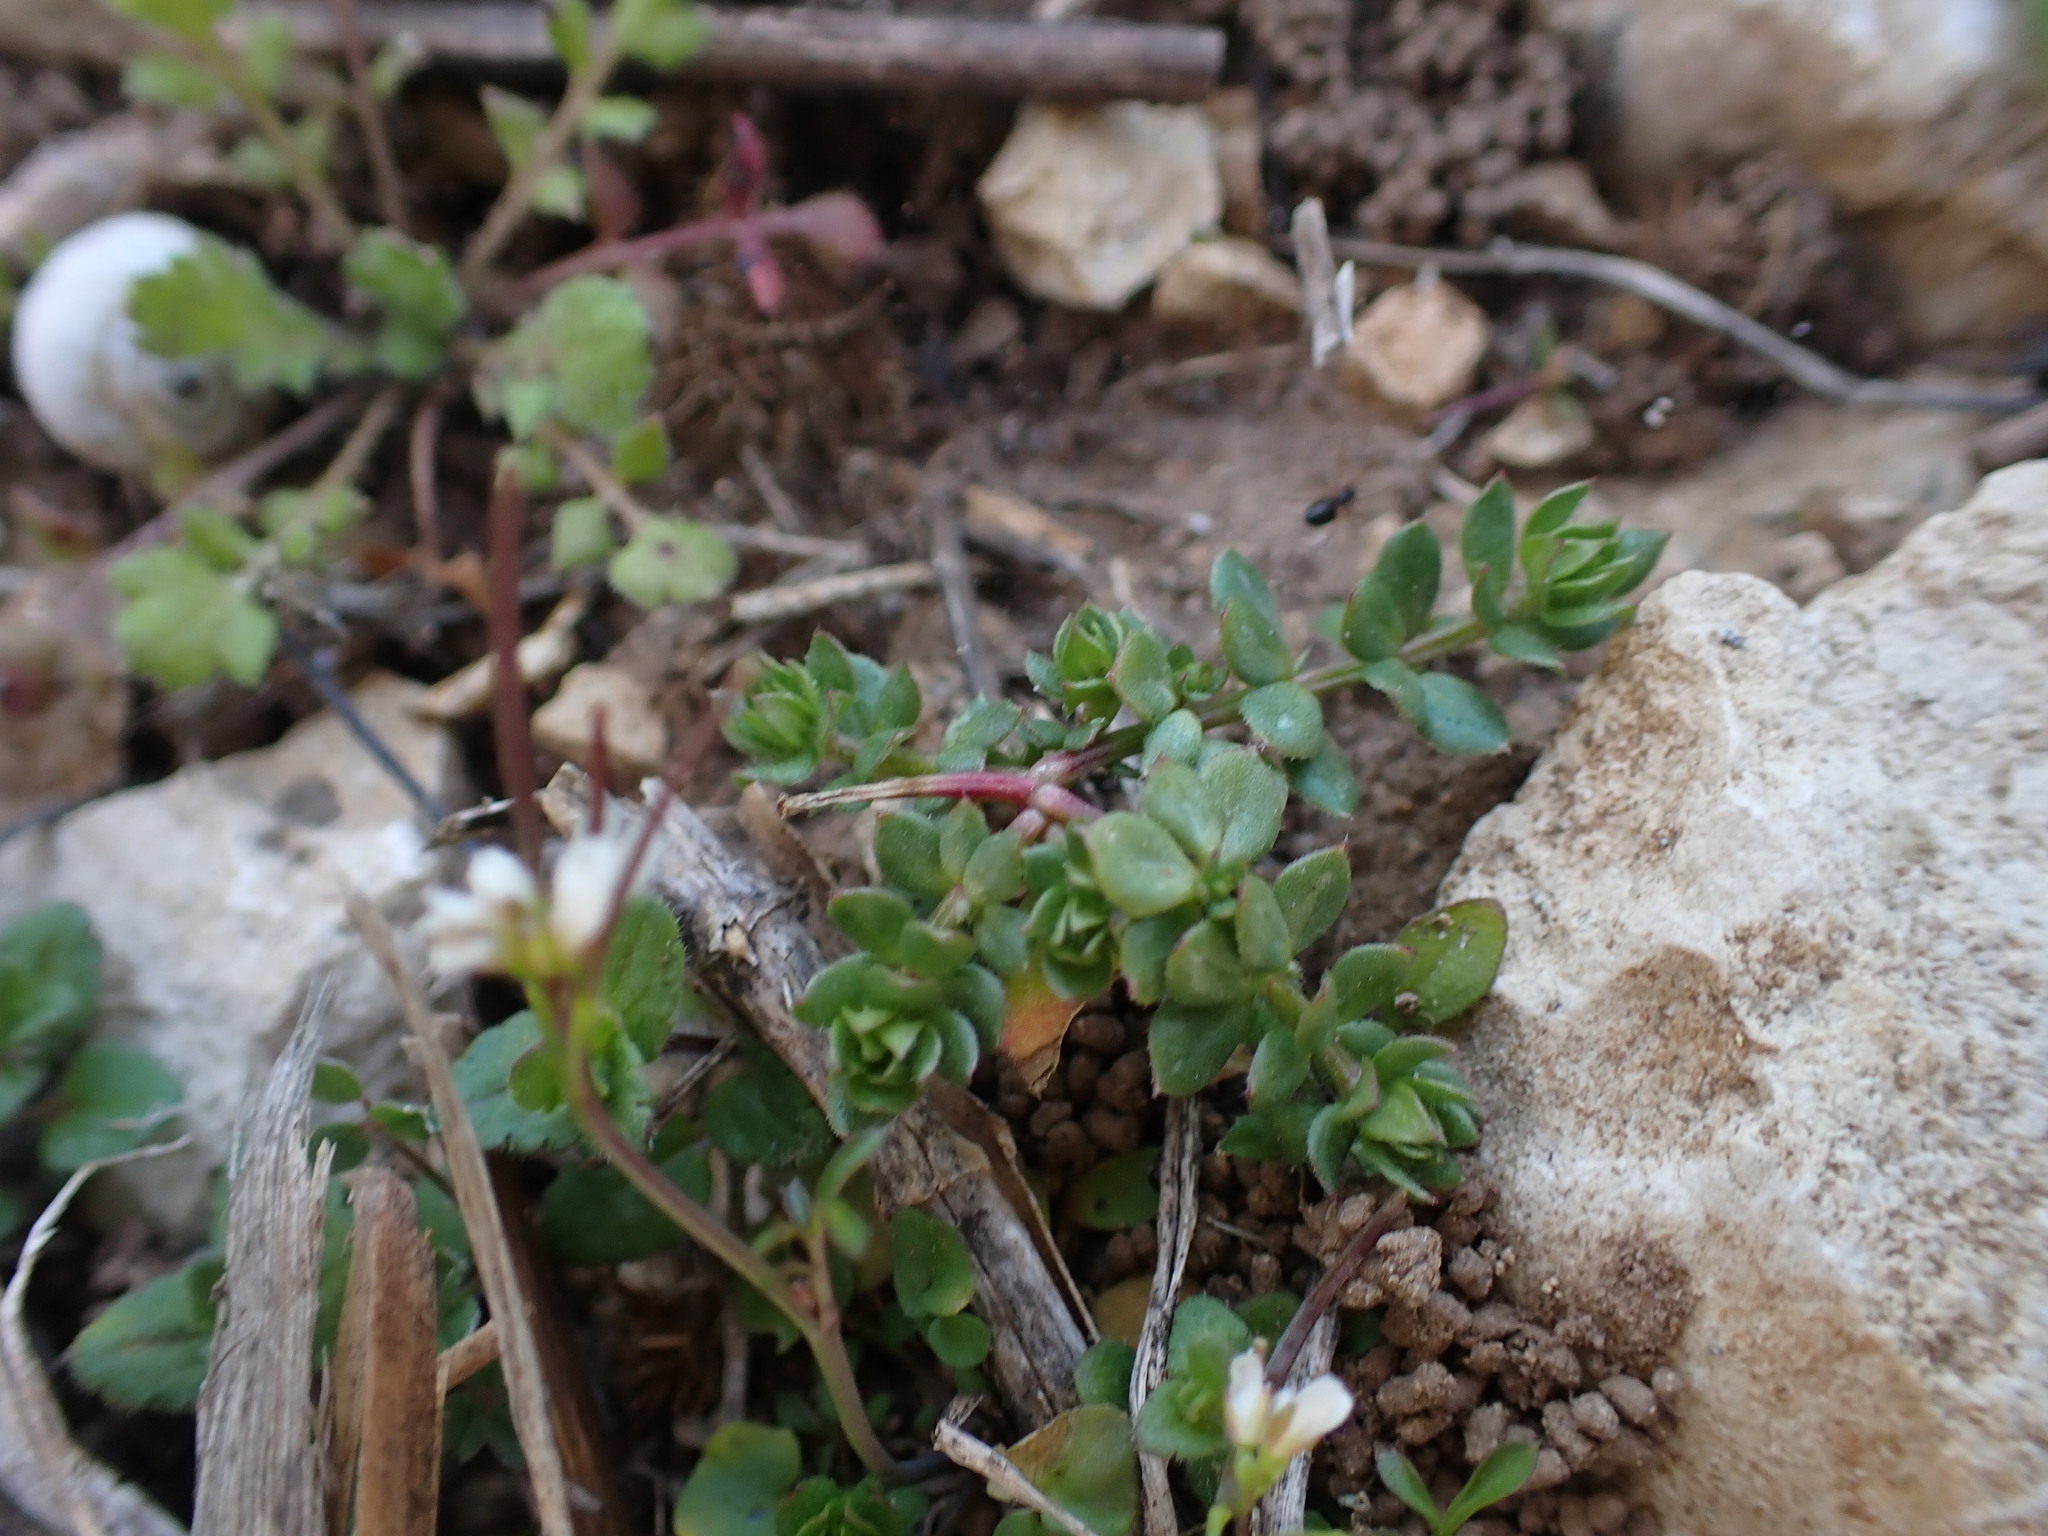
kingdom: Plantae
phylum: Tracheophyta
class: Magnoliopsida
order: Gentianales
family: Rubiaceae
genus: Sherardia
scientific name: Sherardia arvensis
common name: Field madder
